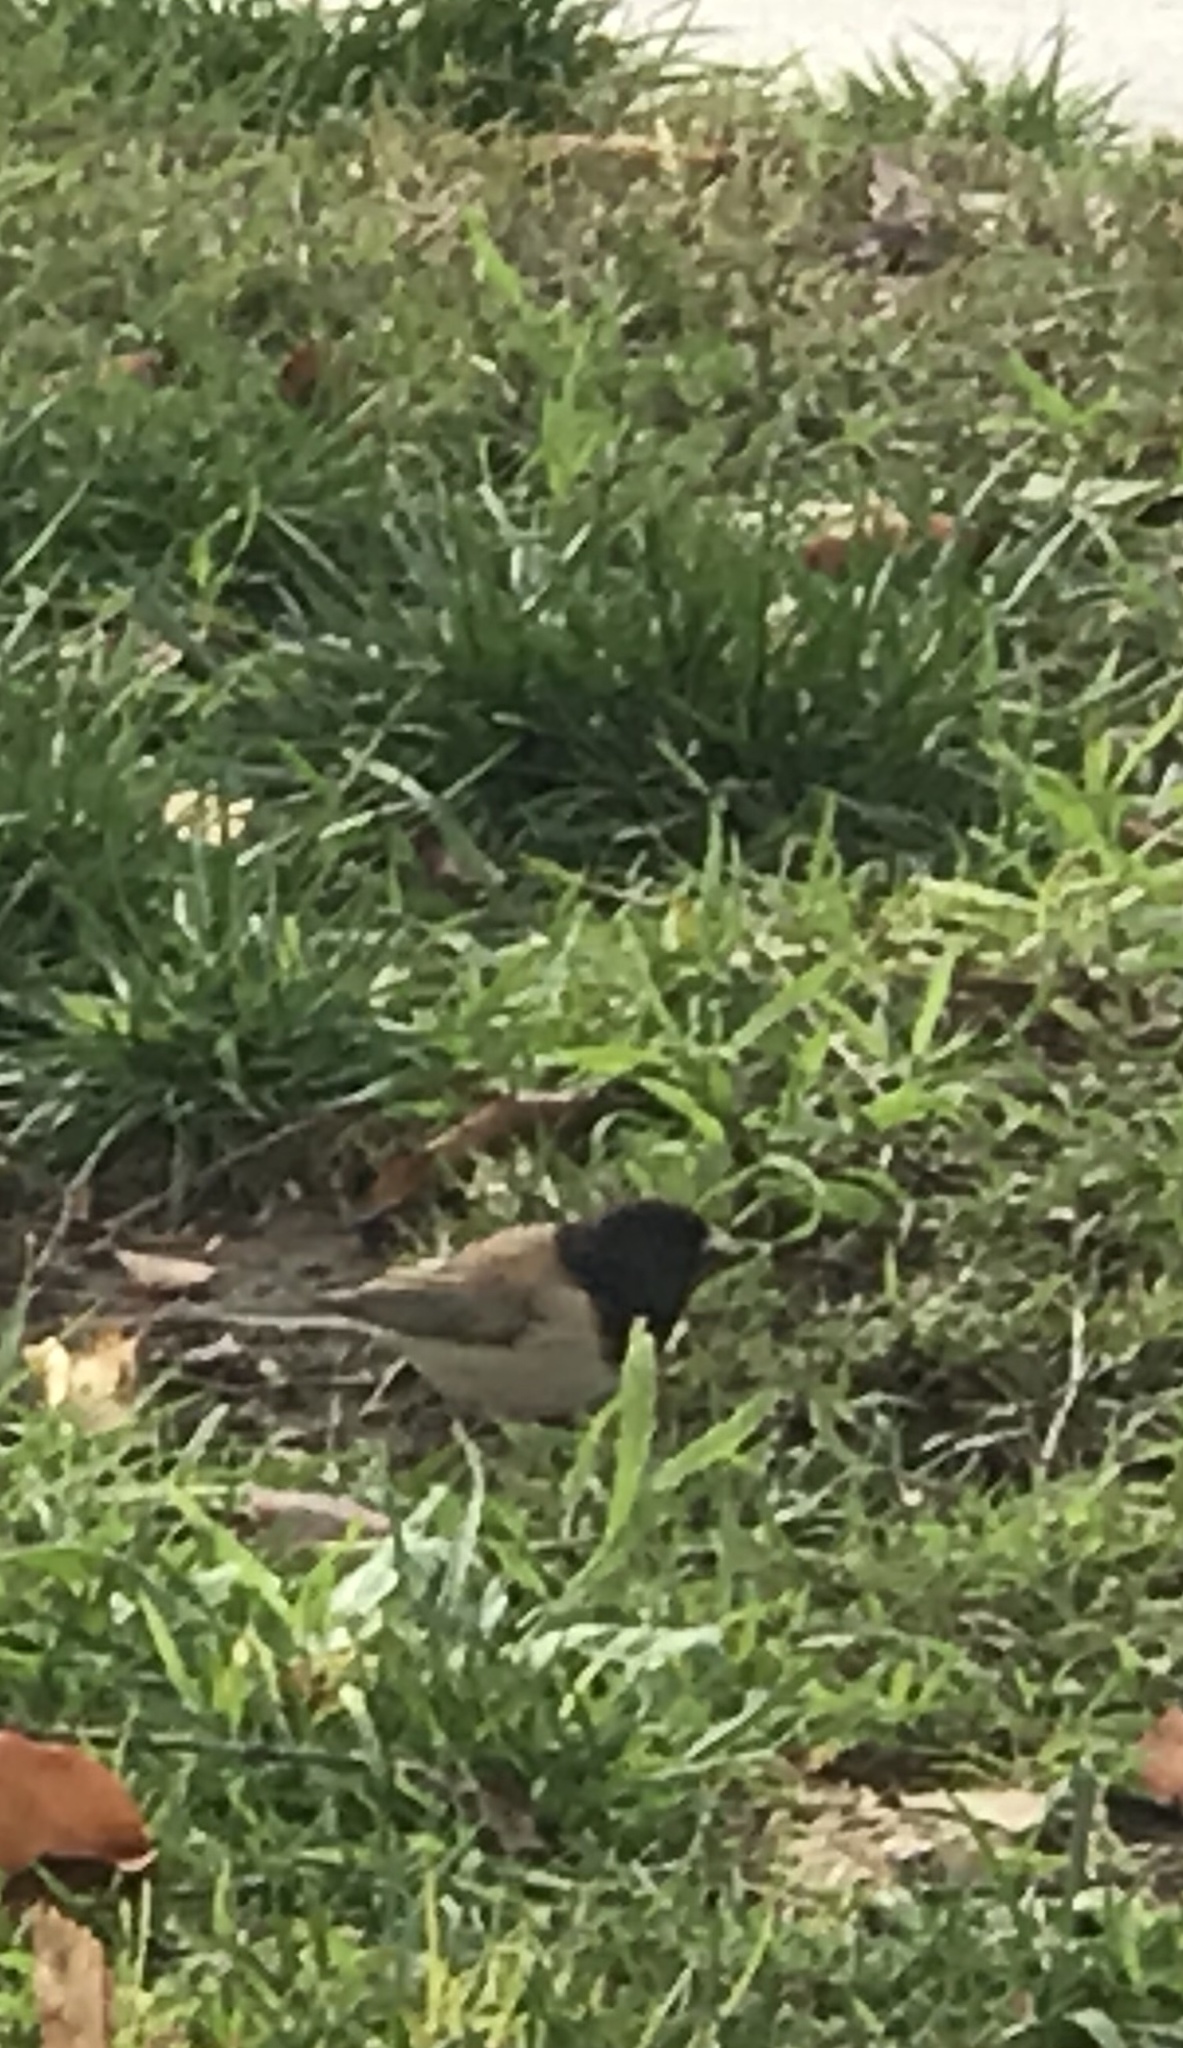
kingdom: Animalia
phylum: Chordata
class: Aves
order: Passeriformes
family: Passerellidae
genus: Junco
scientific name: Junco hyemalis
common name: Dark-eyed junco
